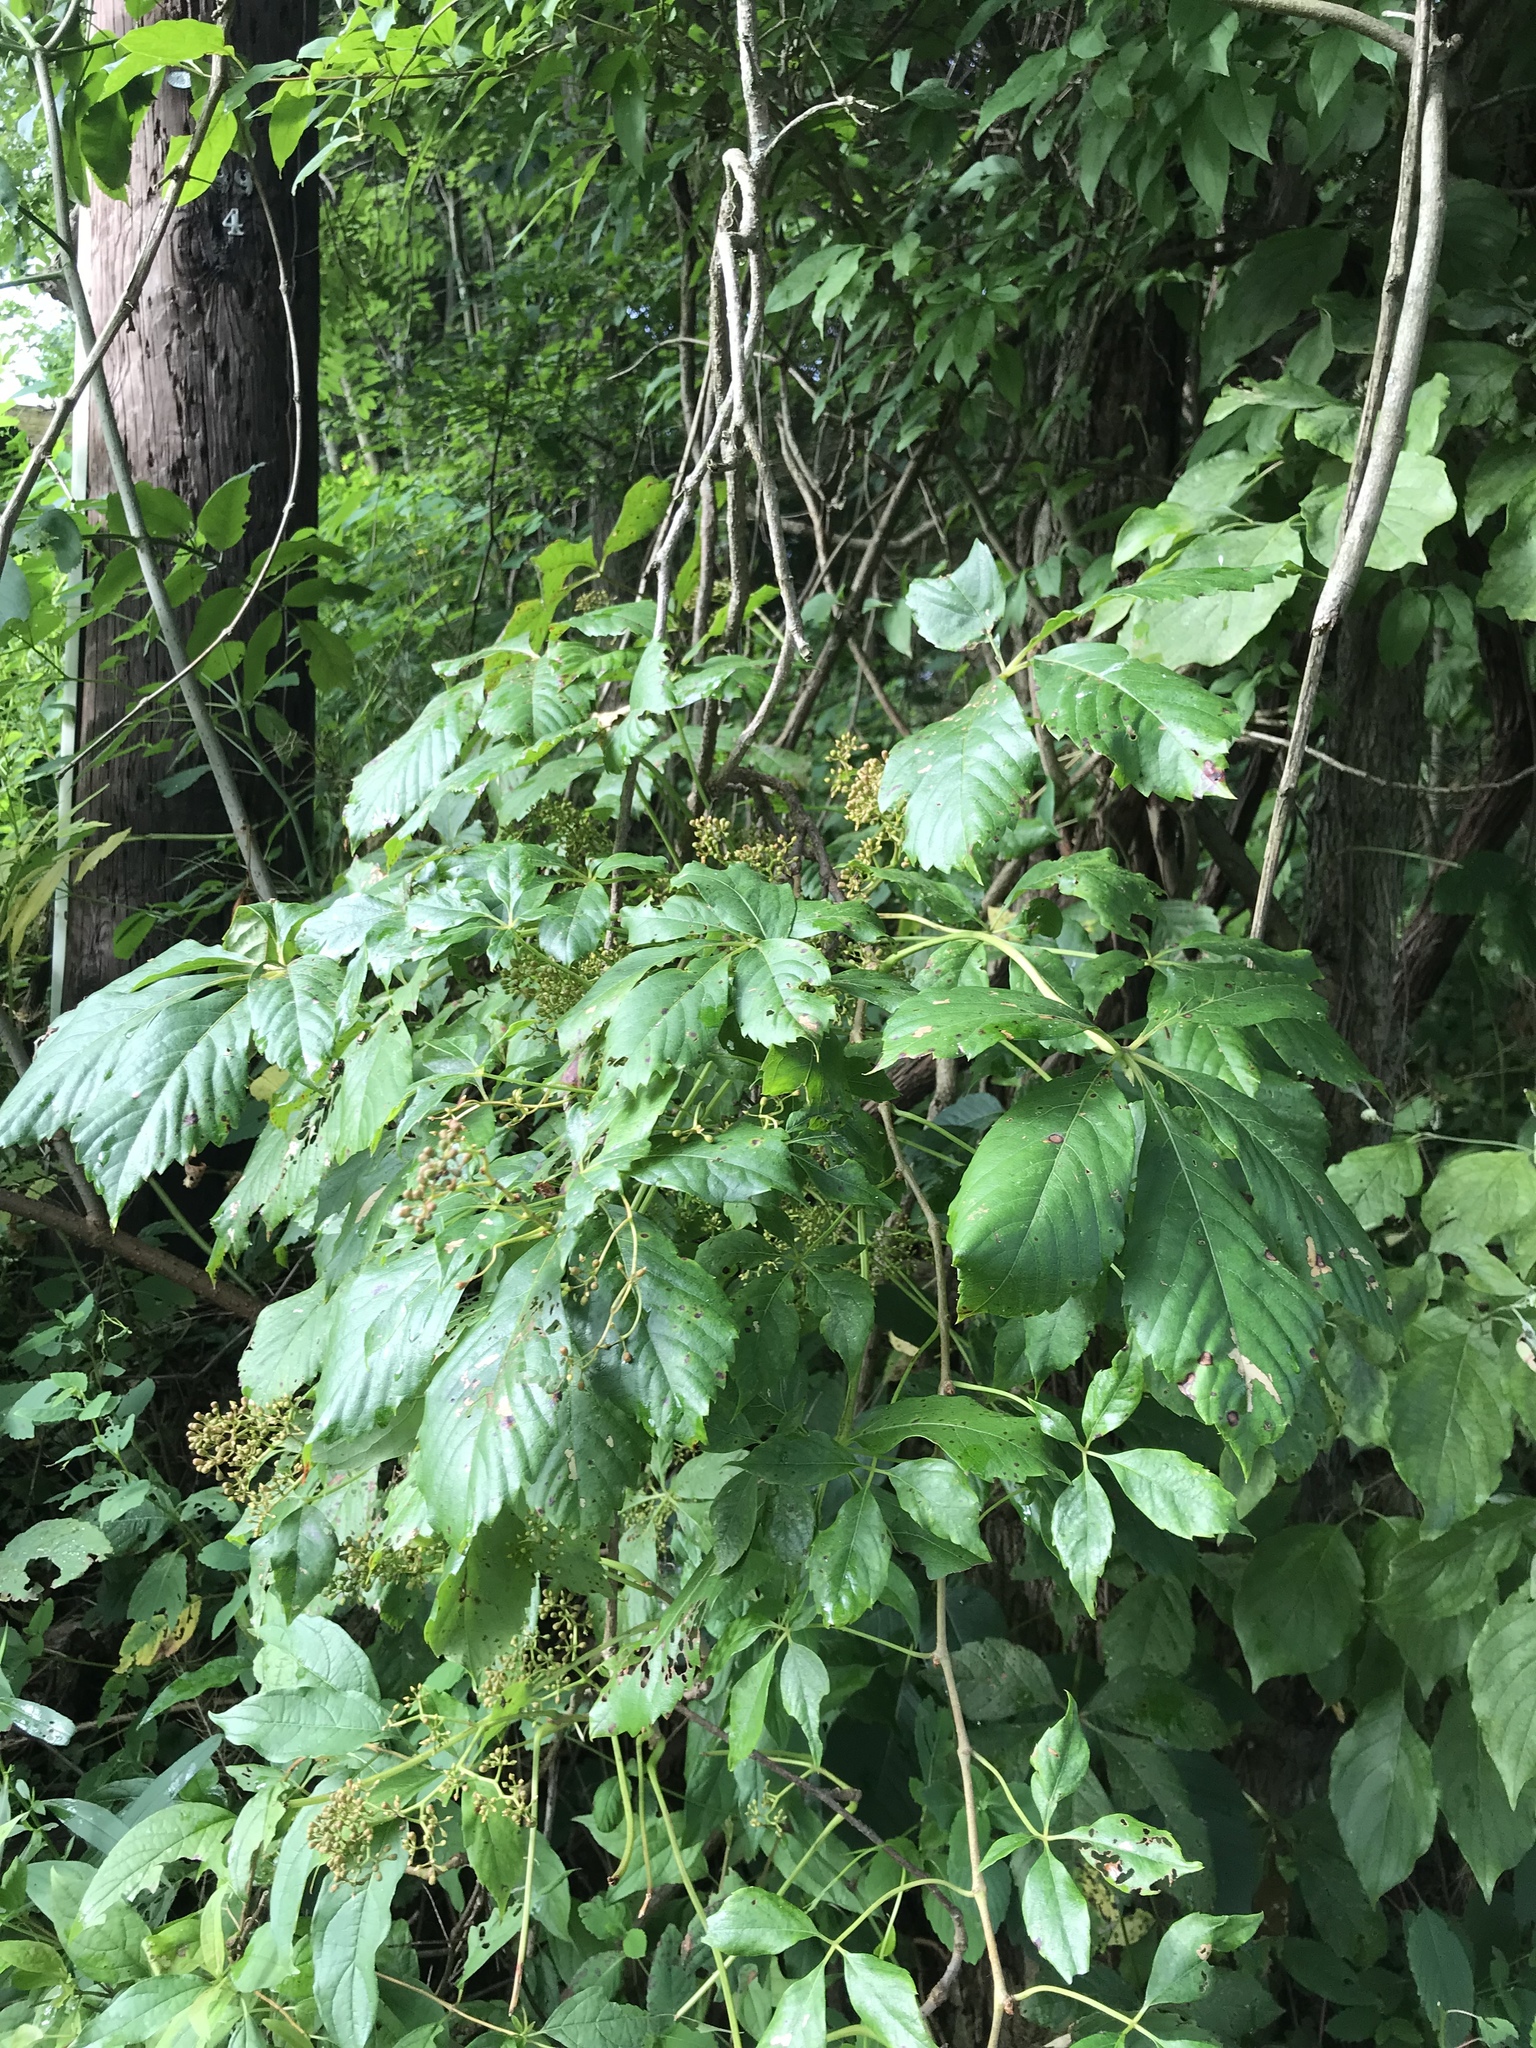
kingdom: Plantae
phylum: Tracheophyta
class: Magnoliopsida
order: Vitales
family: Vitaceae
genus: Parthenocissus
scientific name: Parthenocissus quinquefolia
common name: Virginia-creeper
